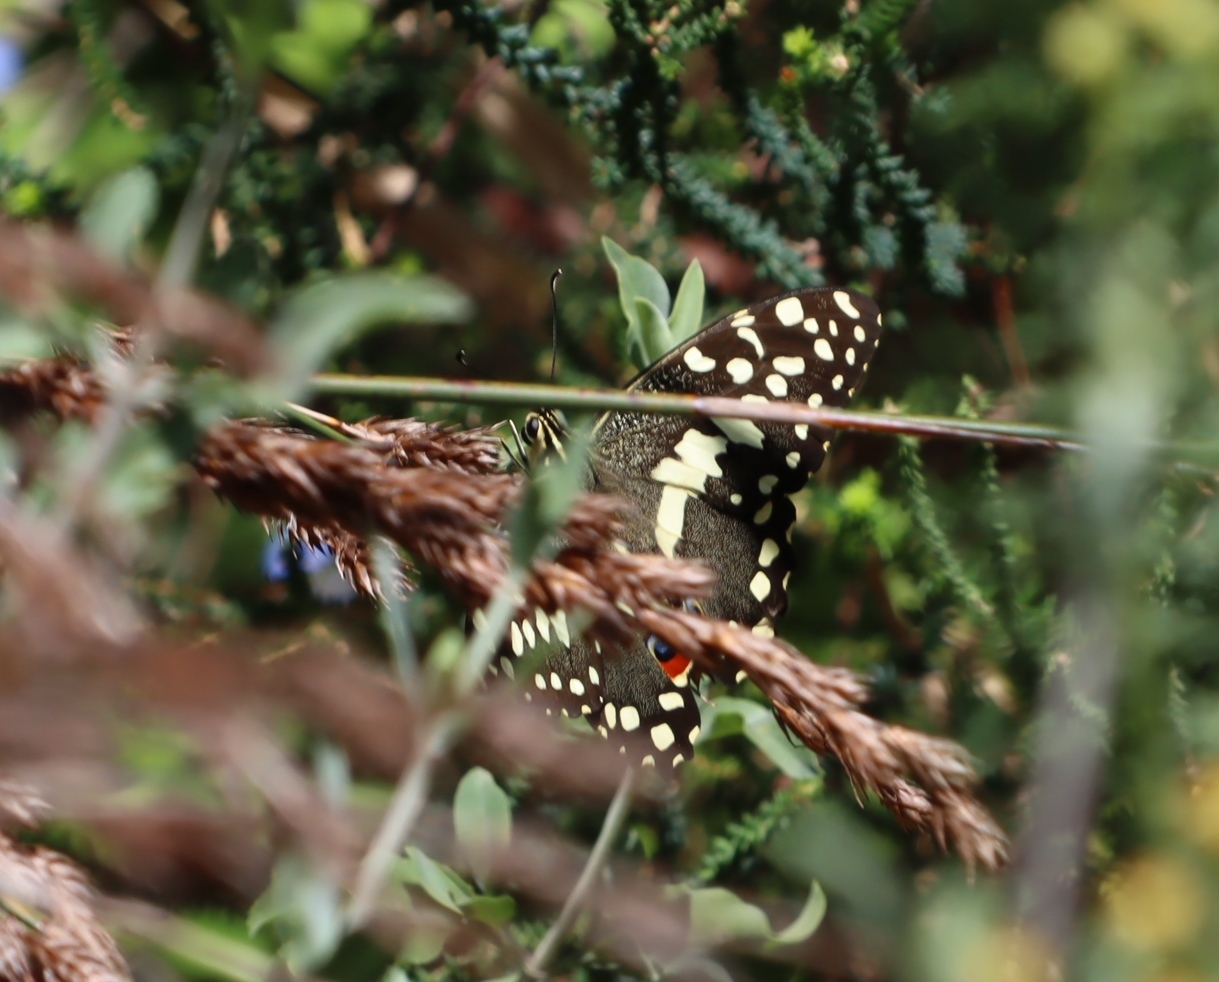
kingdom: Animalia
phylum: Arthropoda
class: Insecta
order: Lepidoptera
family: Papilionidae
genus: Papilio
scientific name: Papilio demodocus
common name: Christmas butterfly
